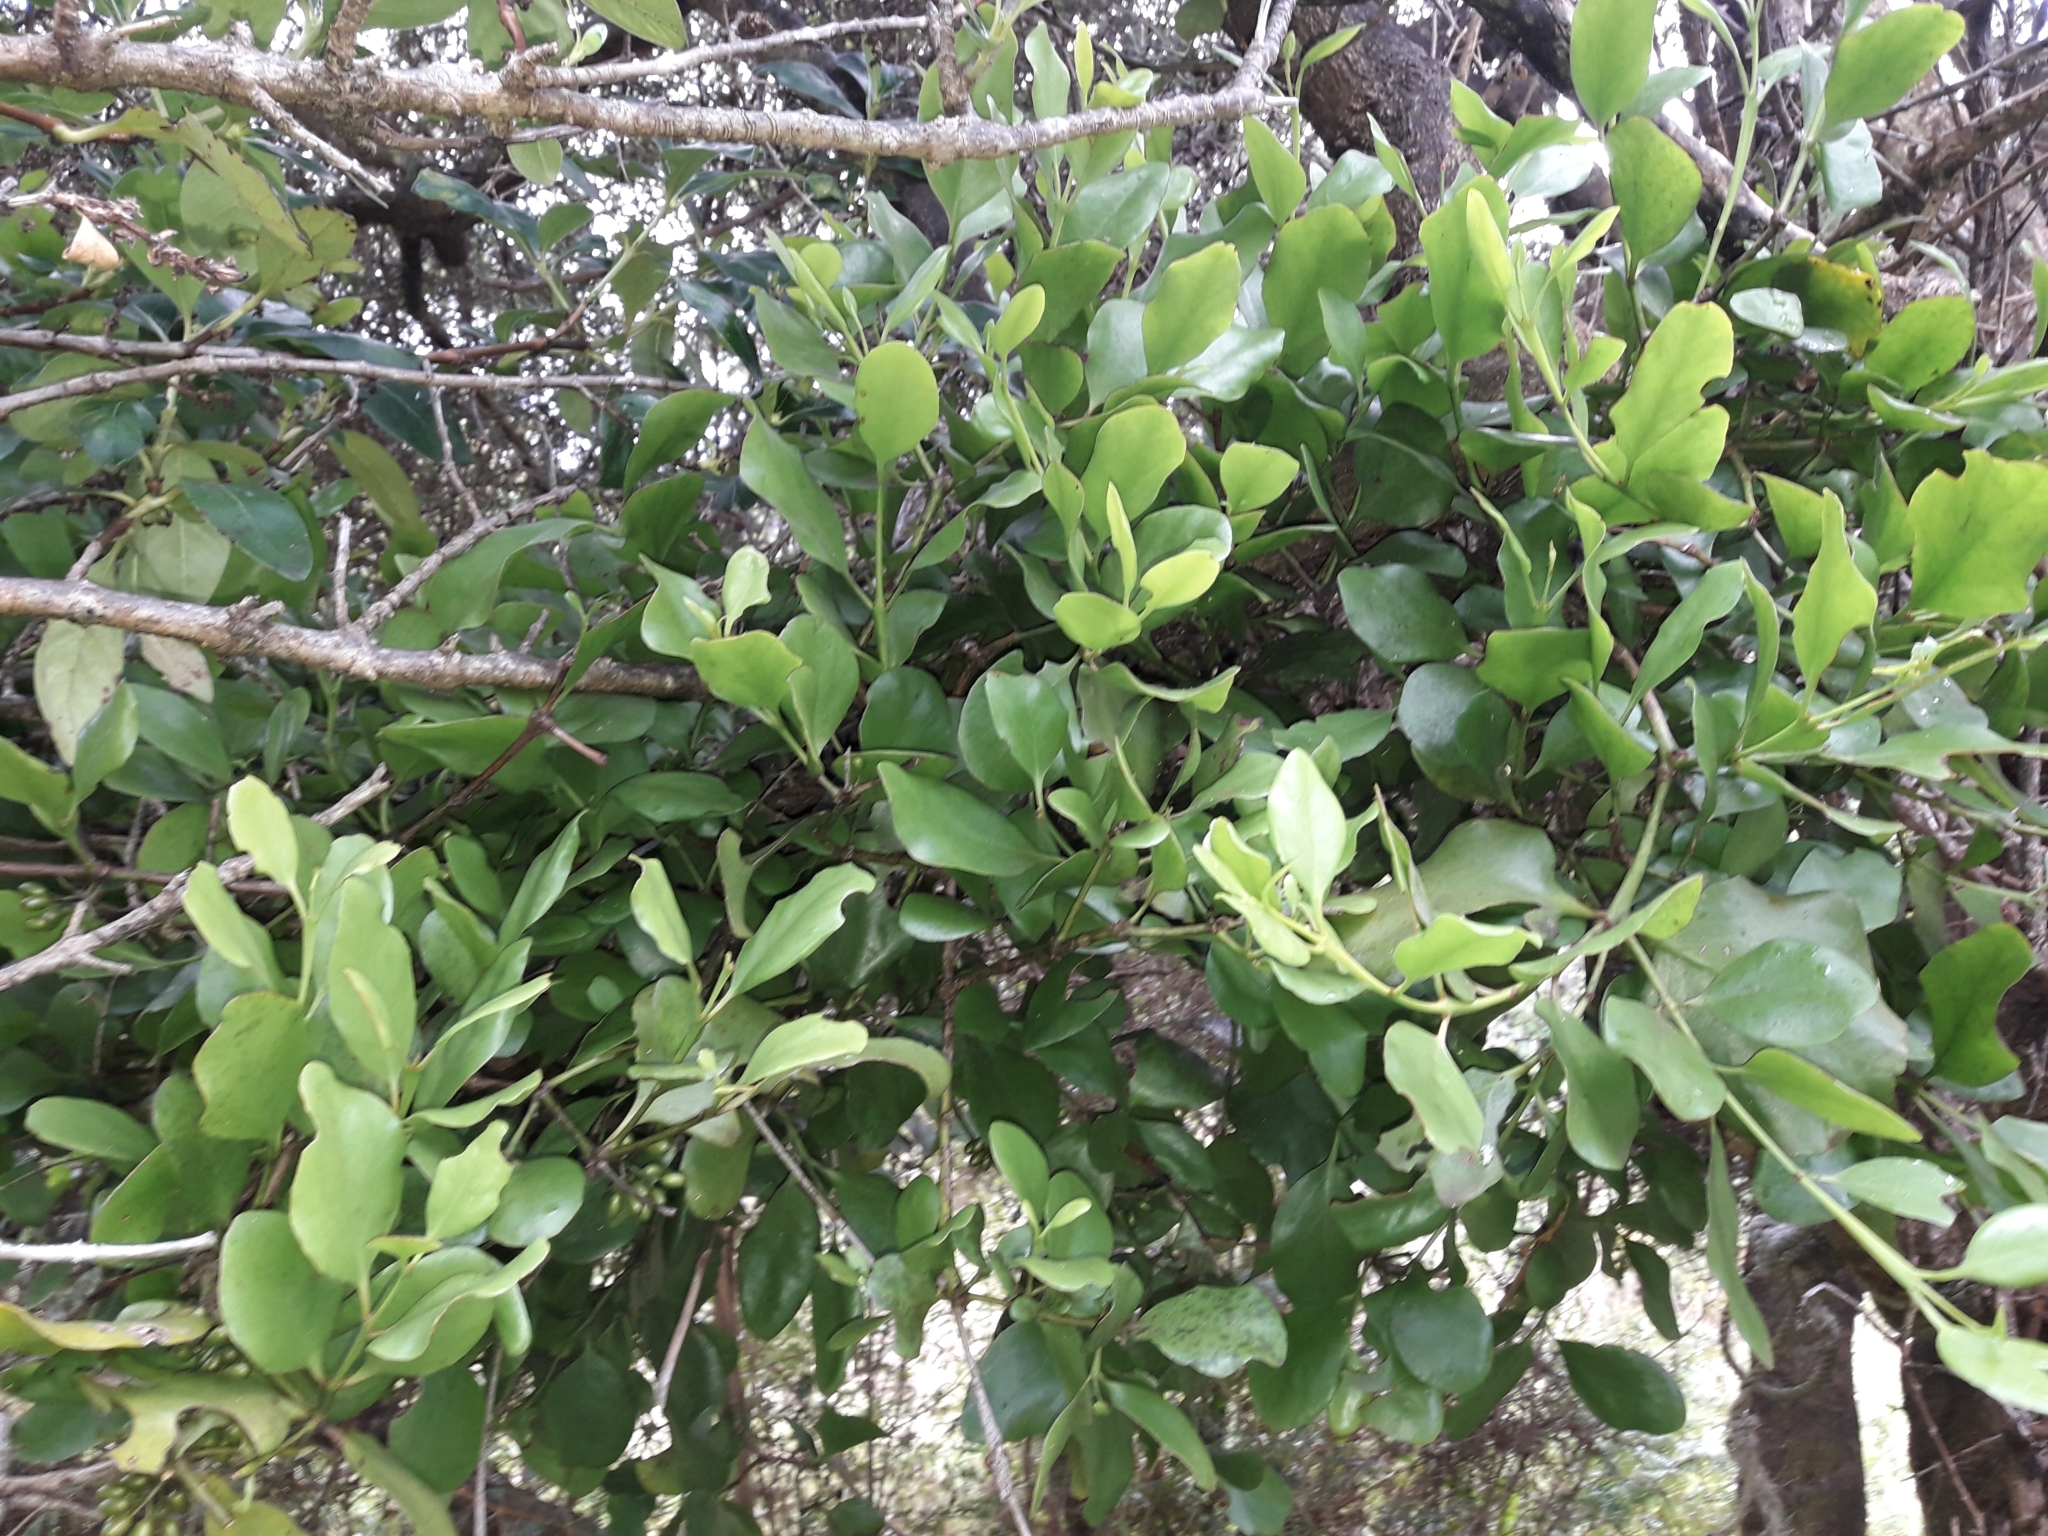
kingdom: Plantae
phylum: Tracheophyta
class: Magnoliopsida
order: Santalales
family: Loranthaceae
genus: Ileostylus
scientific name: Ileostylus micranthus
